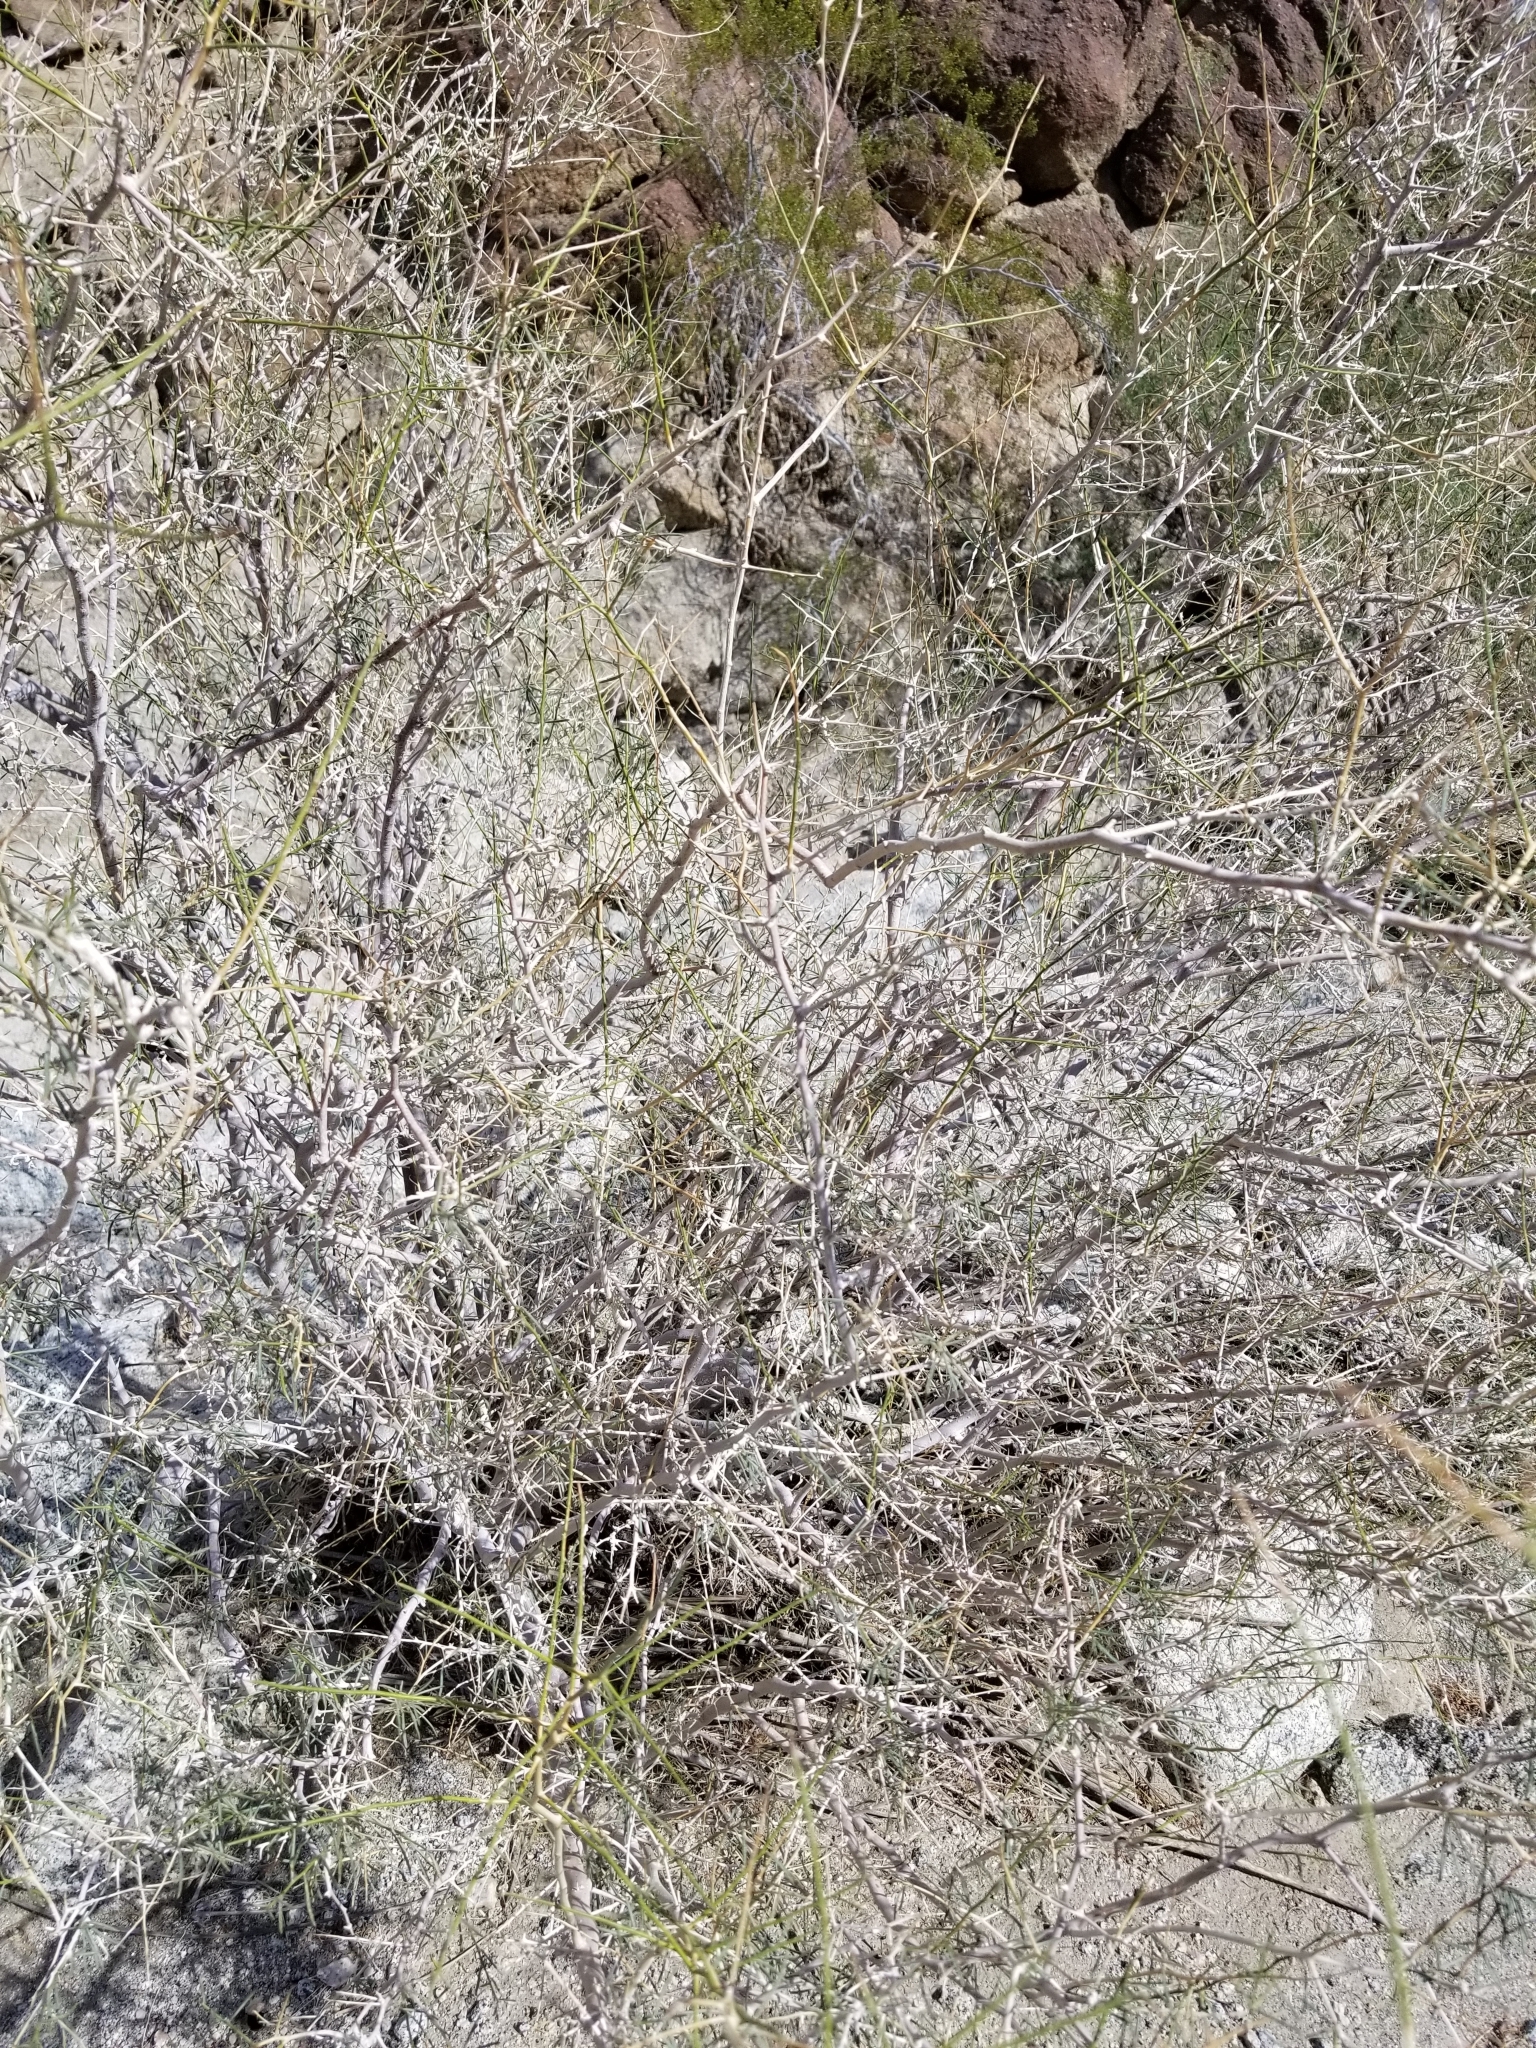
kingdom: Plantae
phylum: Tracheophyta
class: Magnoliopsida
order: Fabales
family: Fabaceae
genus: Psorothamnus
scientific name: Psorothamnus schottii
